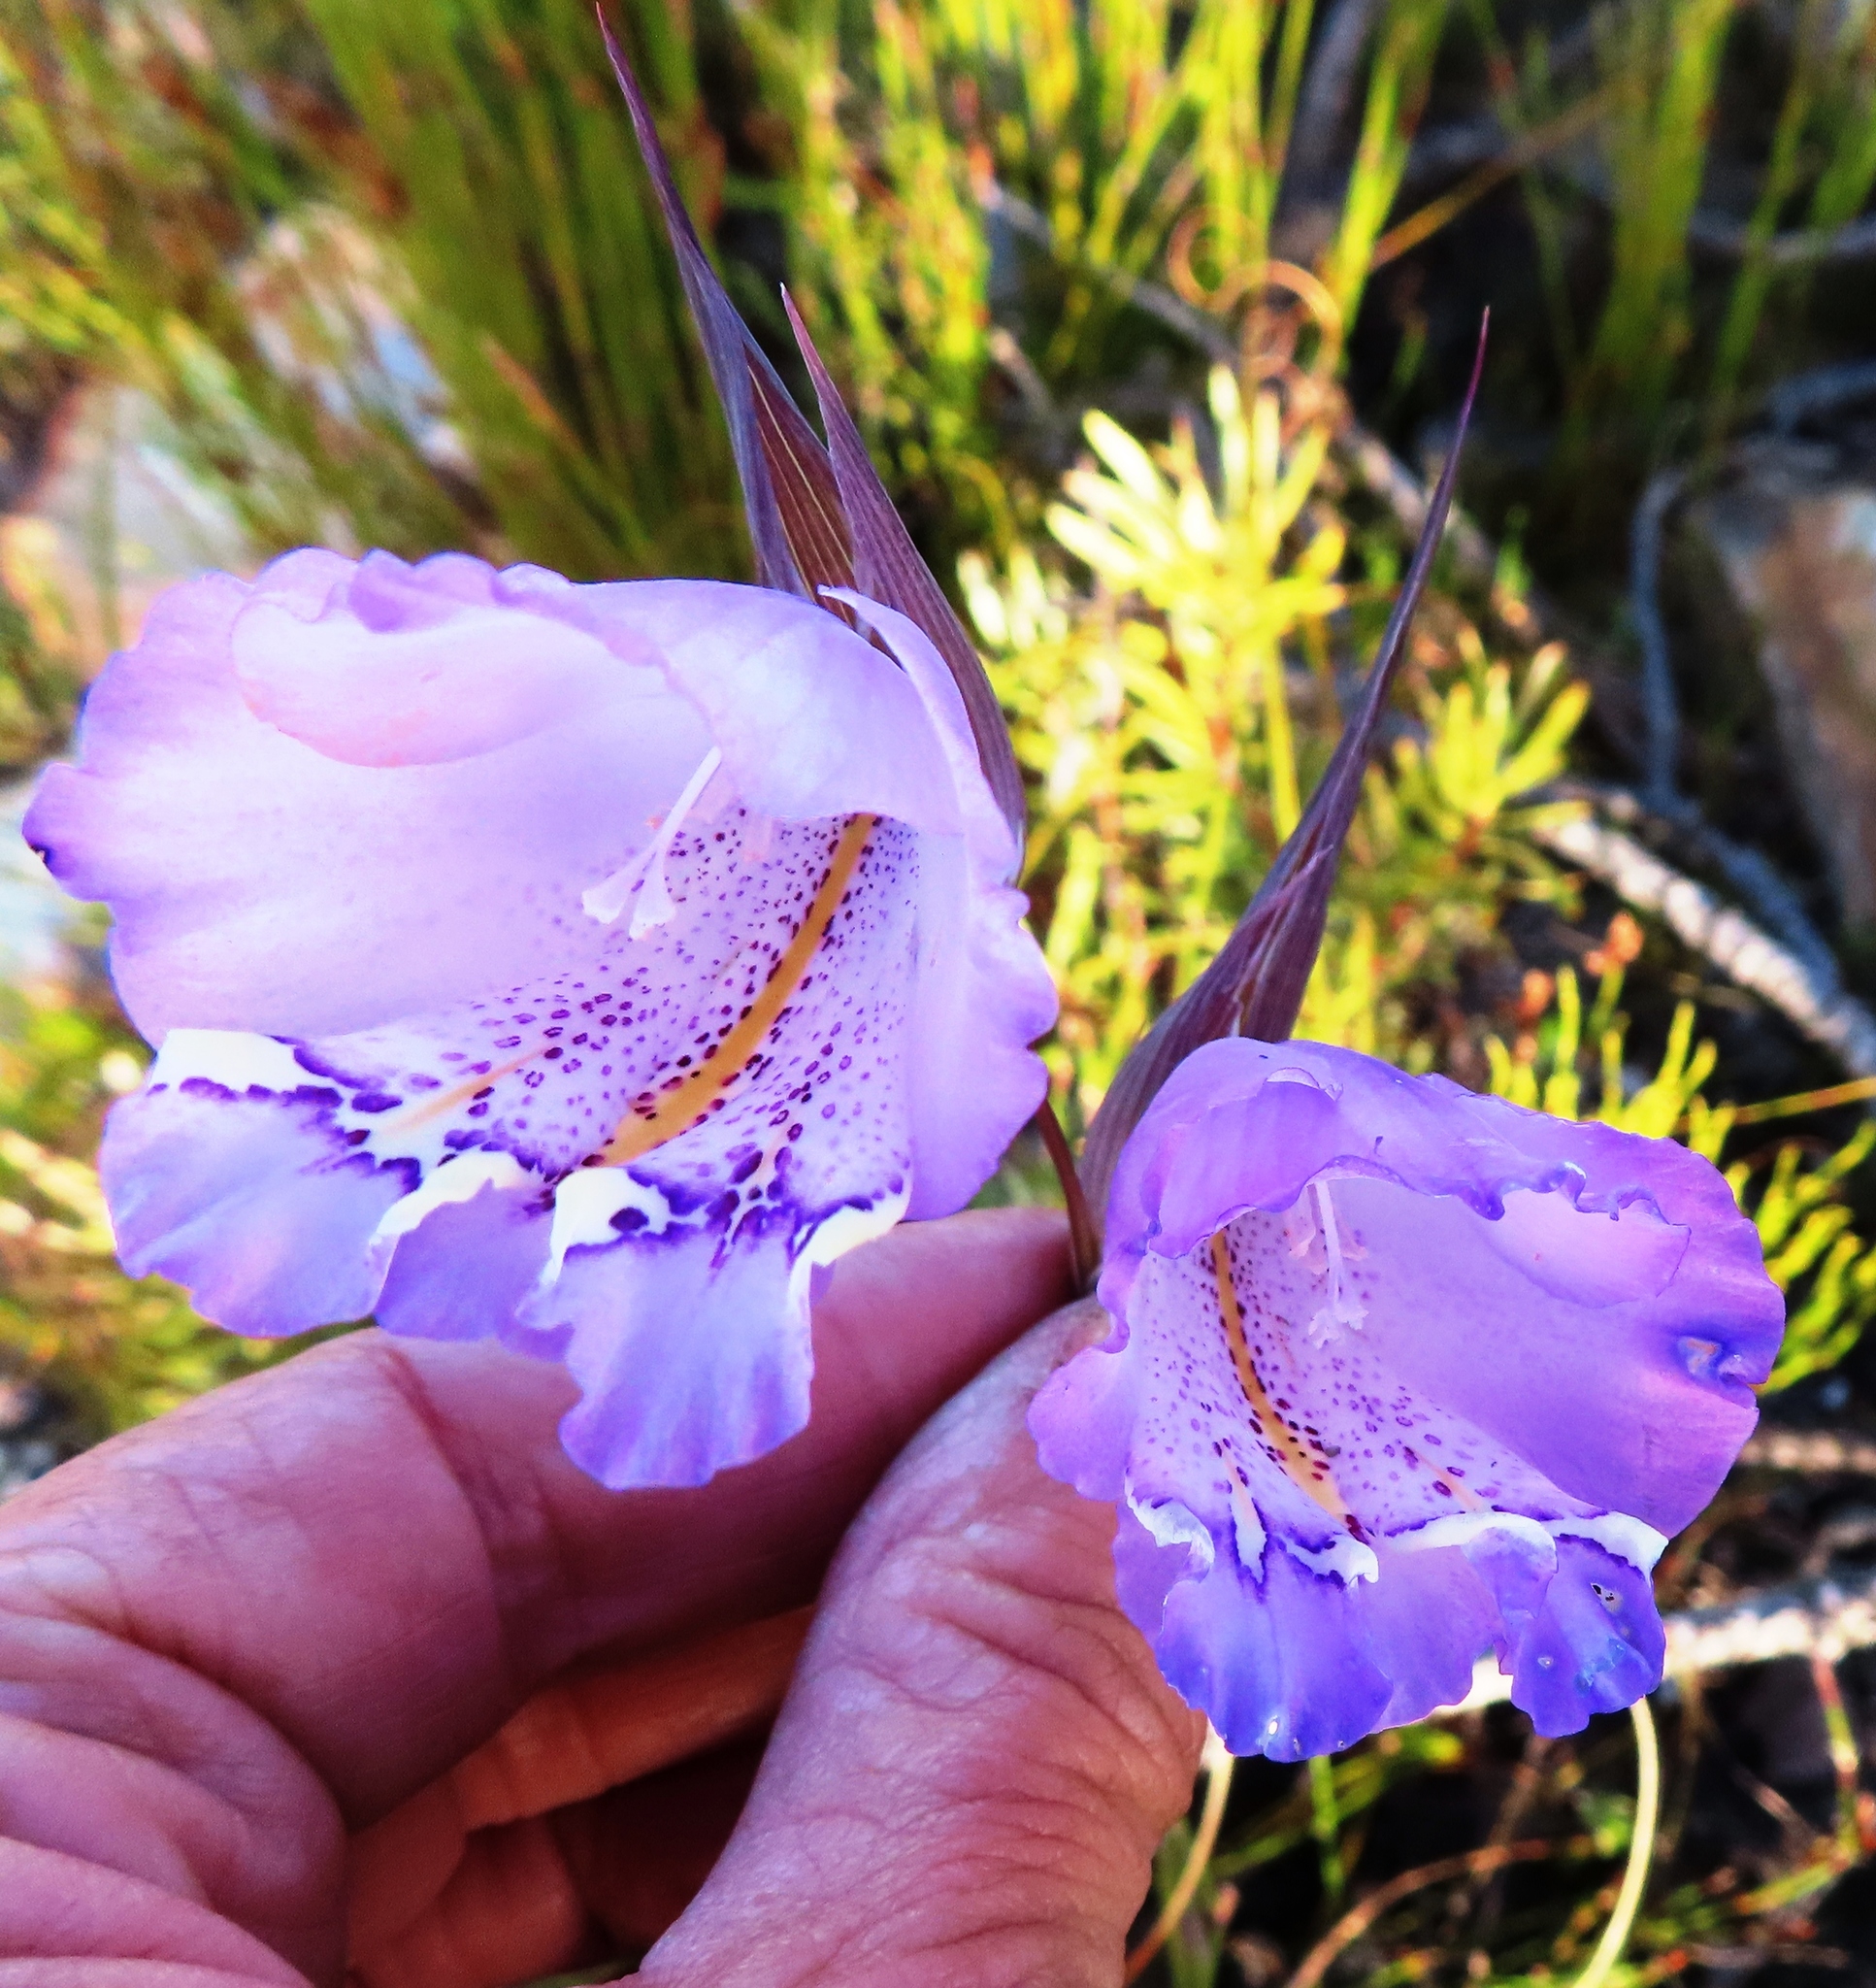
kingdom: Plantae
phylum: Tracheophyta
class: Liliopsida
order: Asparagales
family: Iridaceae
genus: Gladiolus
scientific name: Gladiolus bullatus
